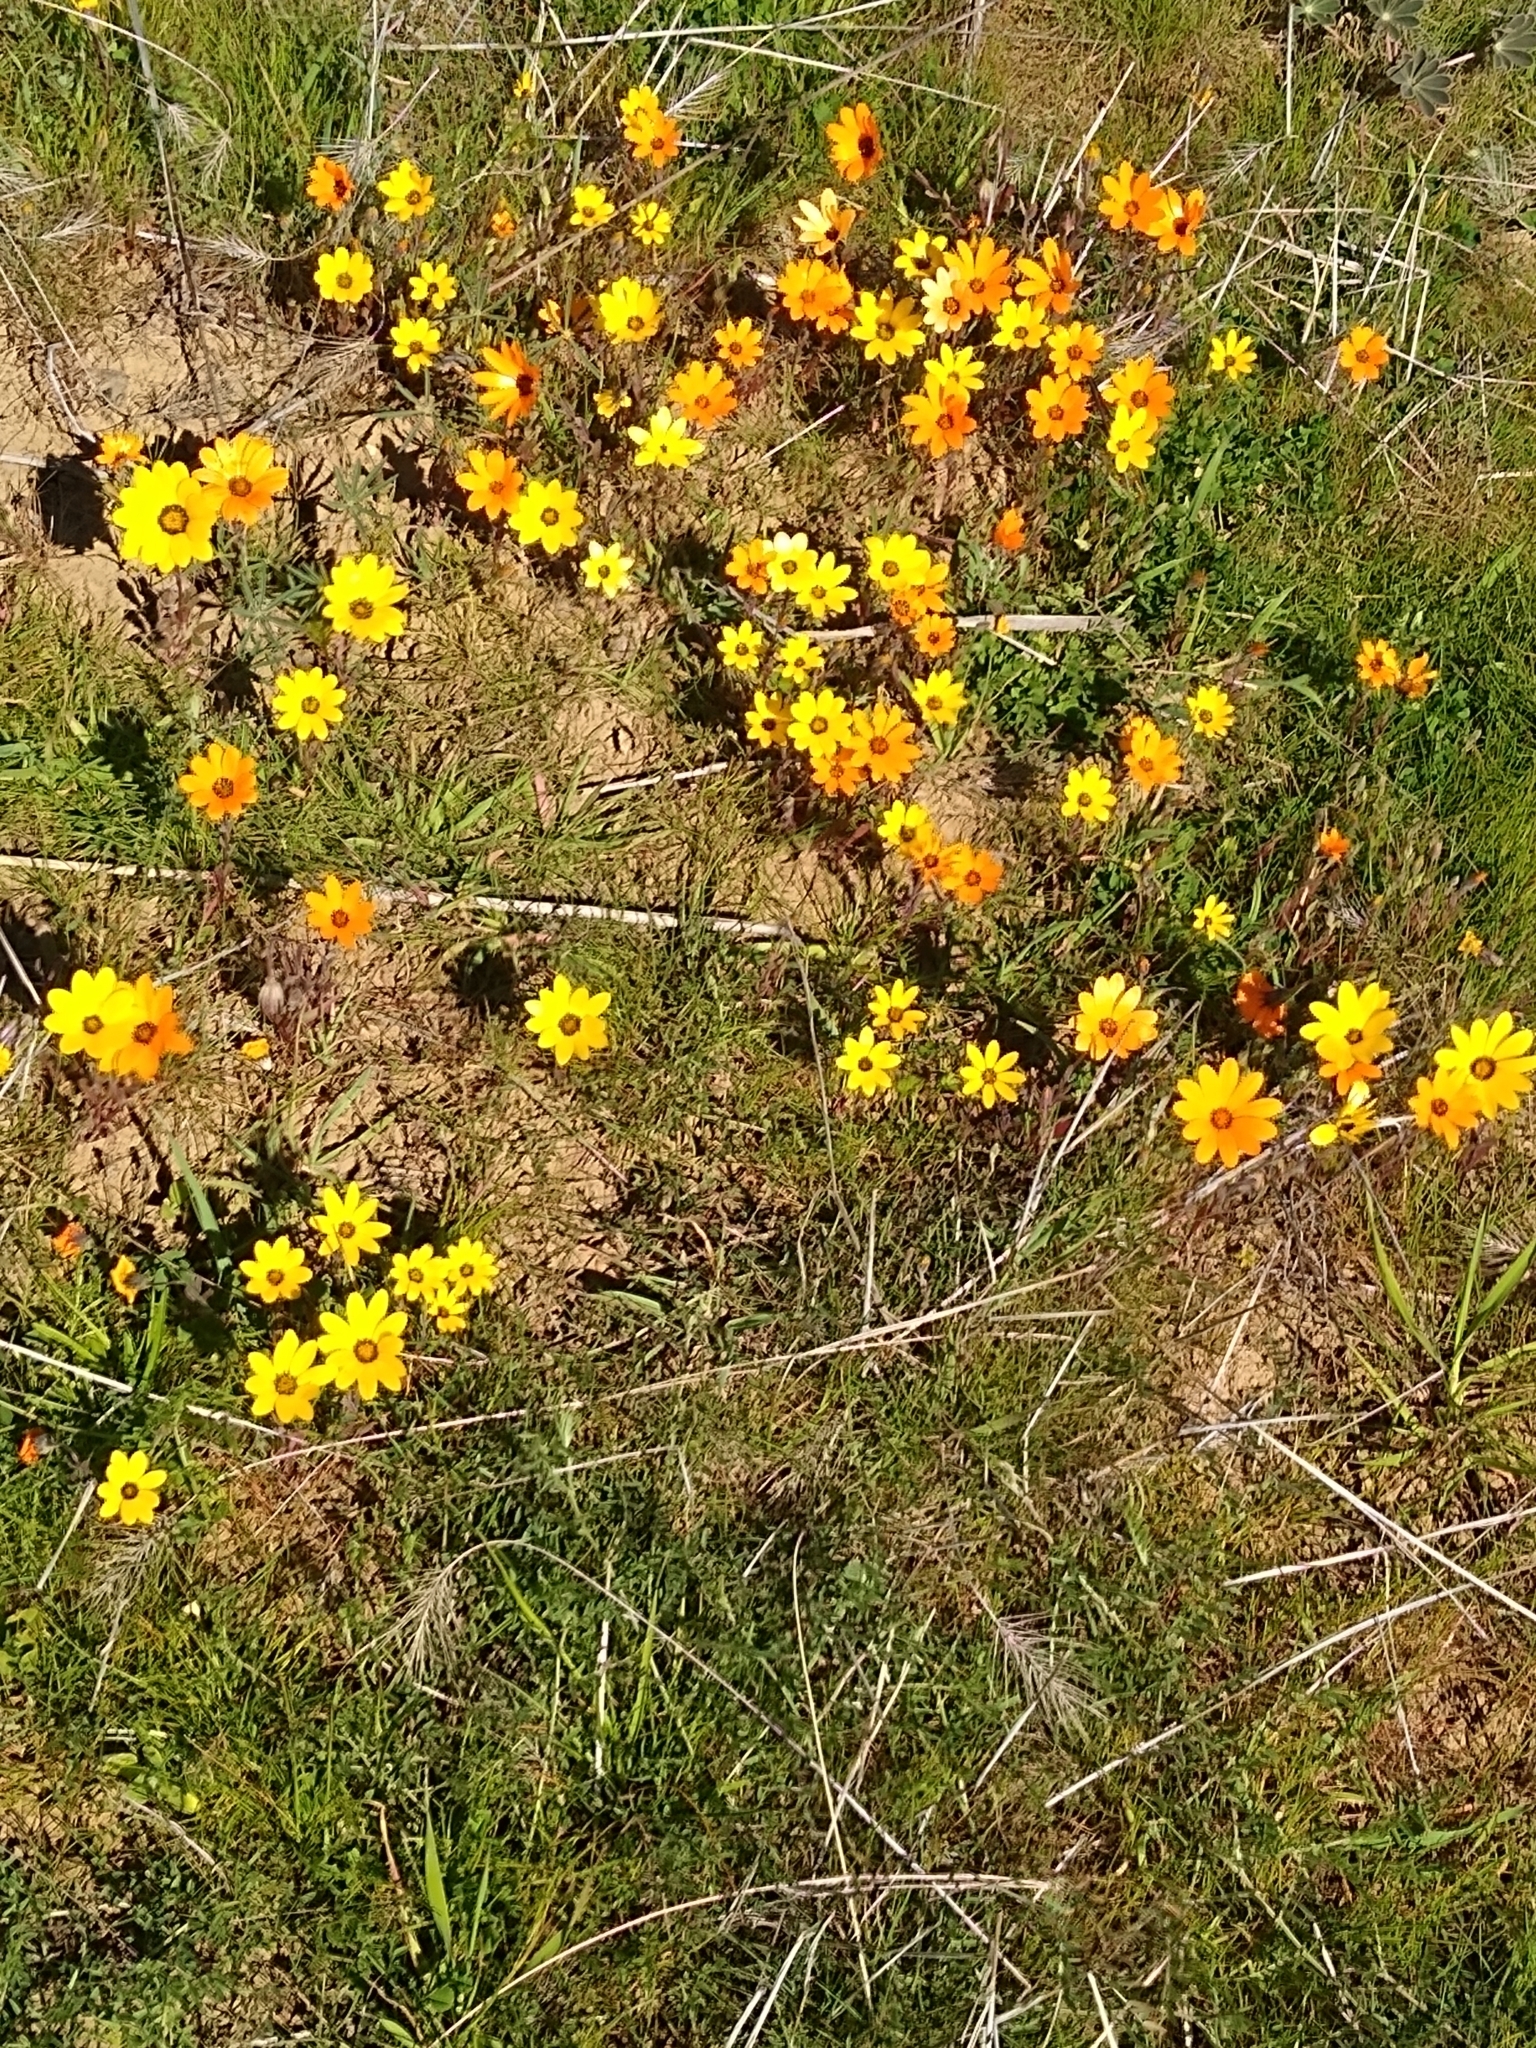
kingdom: Plantae
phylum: Tracheophyta
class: Magnoliopsida
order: Asterales
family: Asteraceae
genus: Dimorphotheca
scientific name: Dimorphotheca sinuata
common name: Glandular cape marigold
